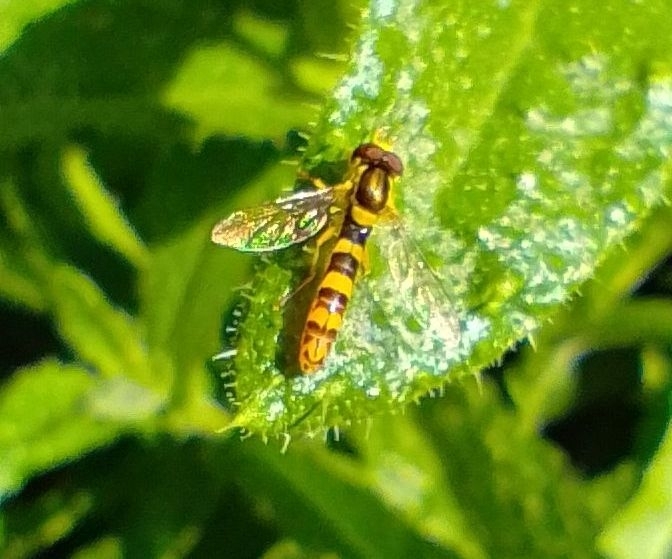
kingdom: Animalia
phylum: Arthropoda
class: Insecta
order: Diptera
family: Syrphidae
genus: Sphaerophoria
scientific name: Sphaerophoria scripta
